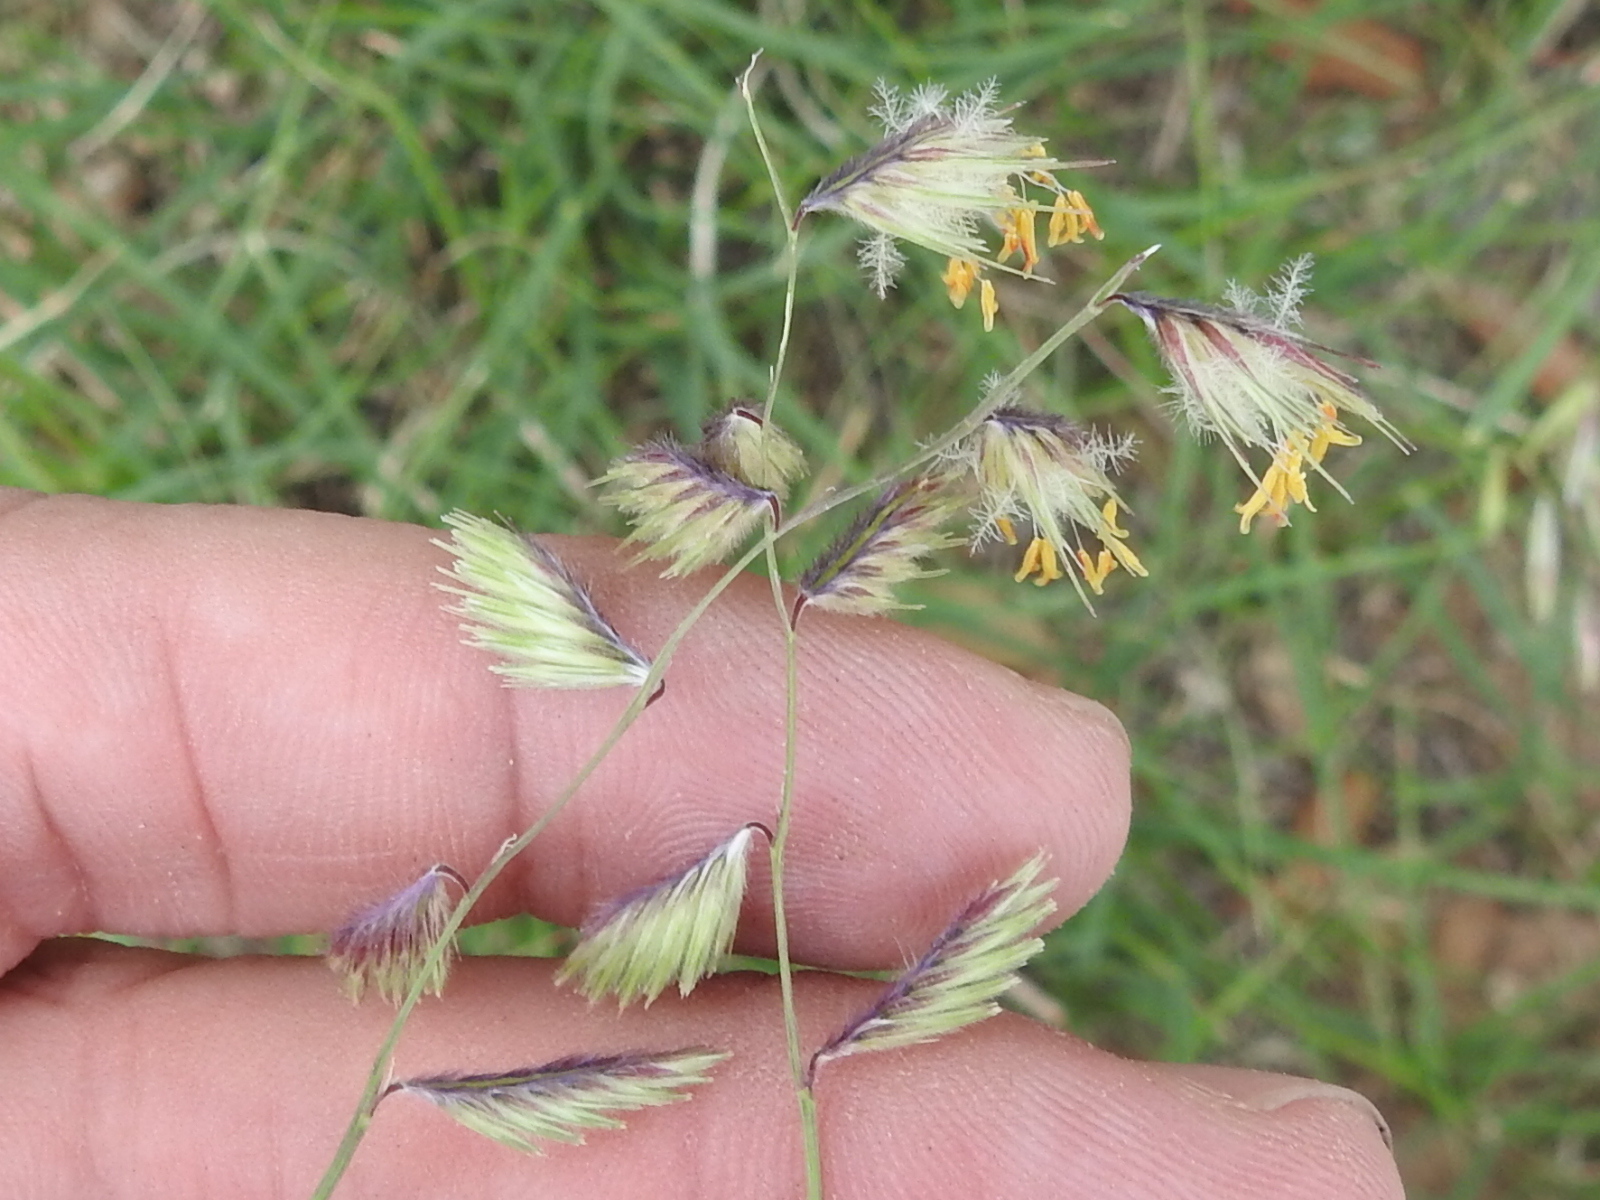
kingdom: Plantae
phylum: Tracheophyta
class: Liliopsida
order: Poales
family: Poaceae
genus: Bouteloua
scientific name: Bouteloua chondrosioides
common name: Sprucetop grama
